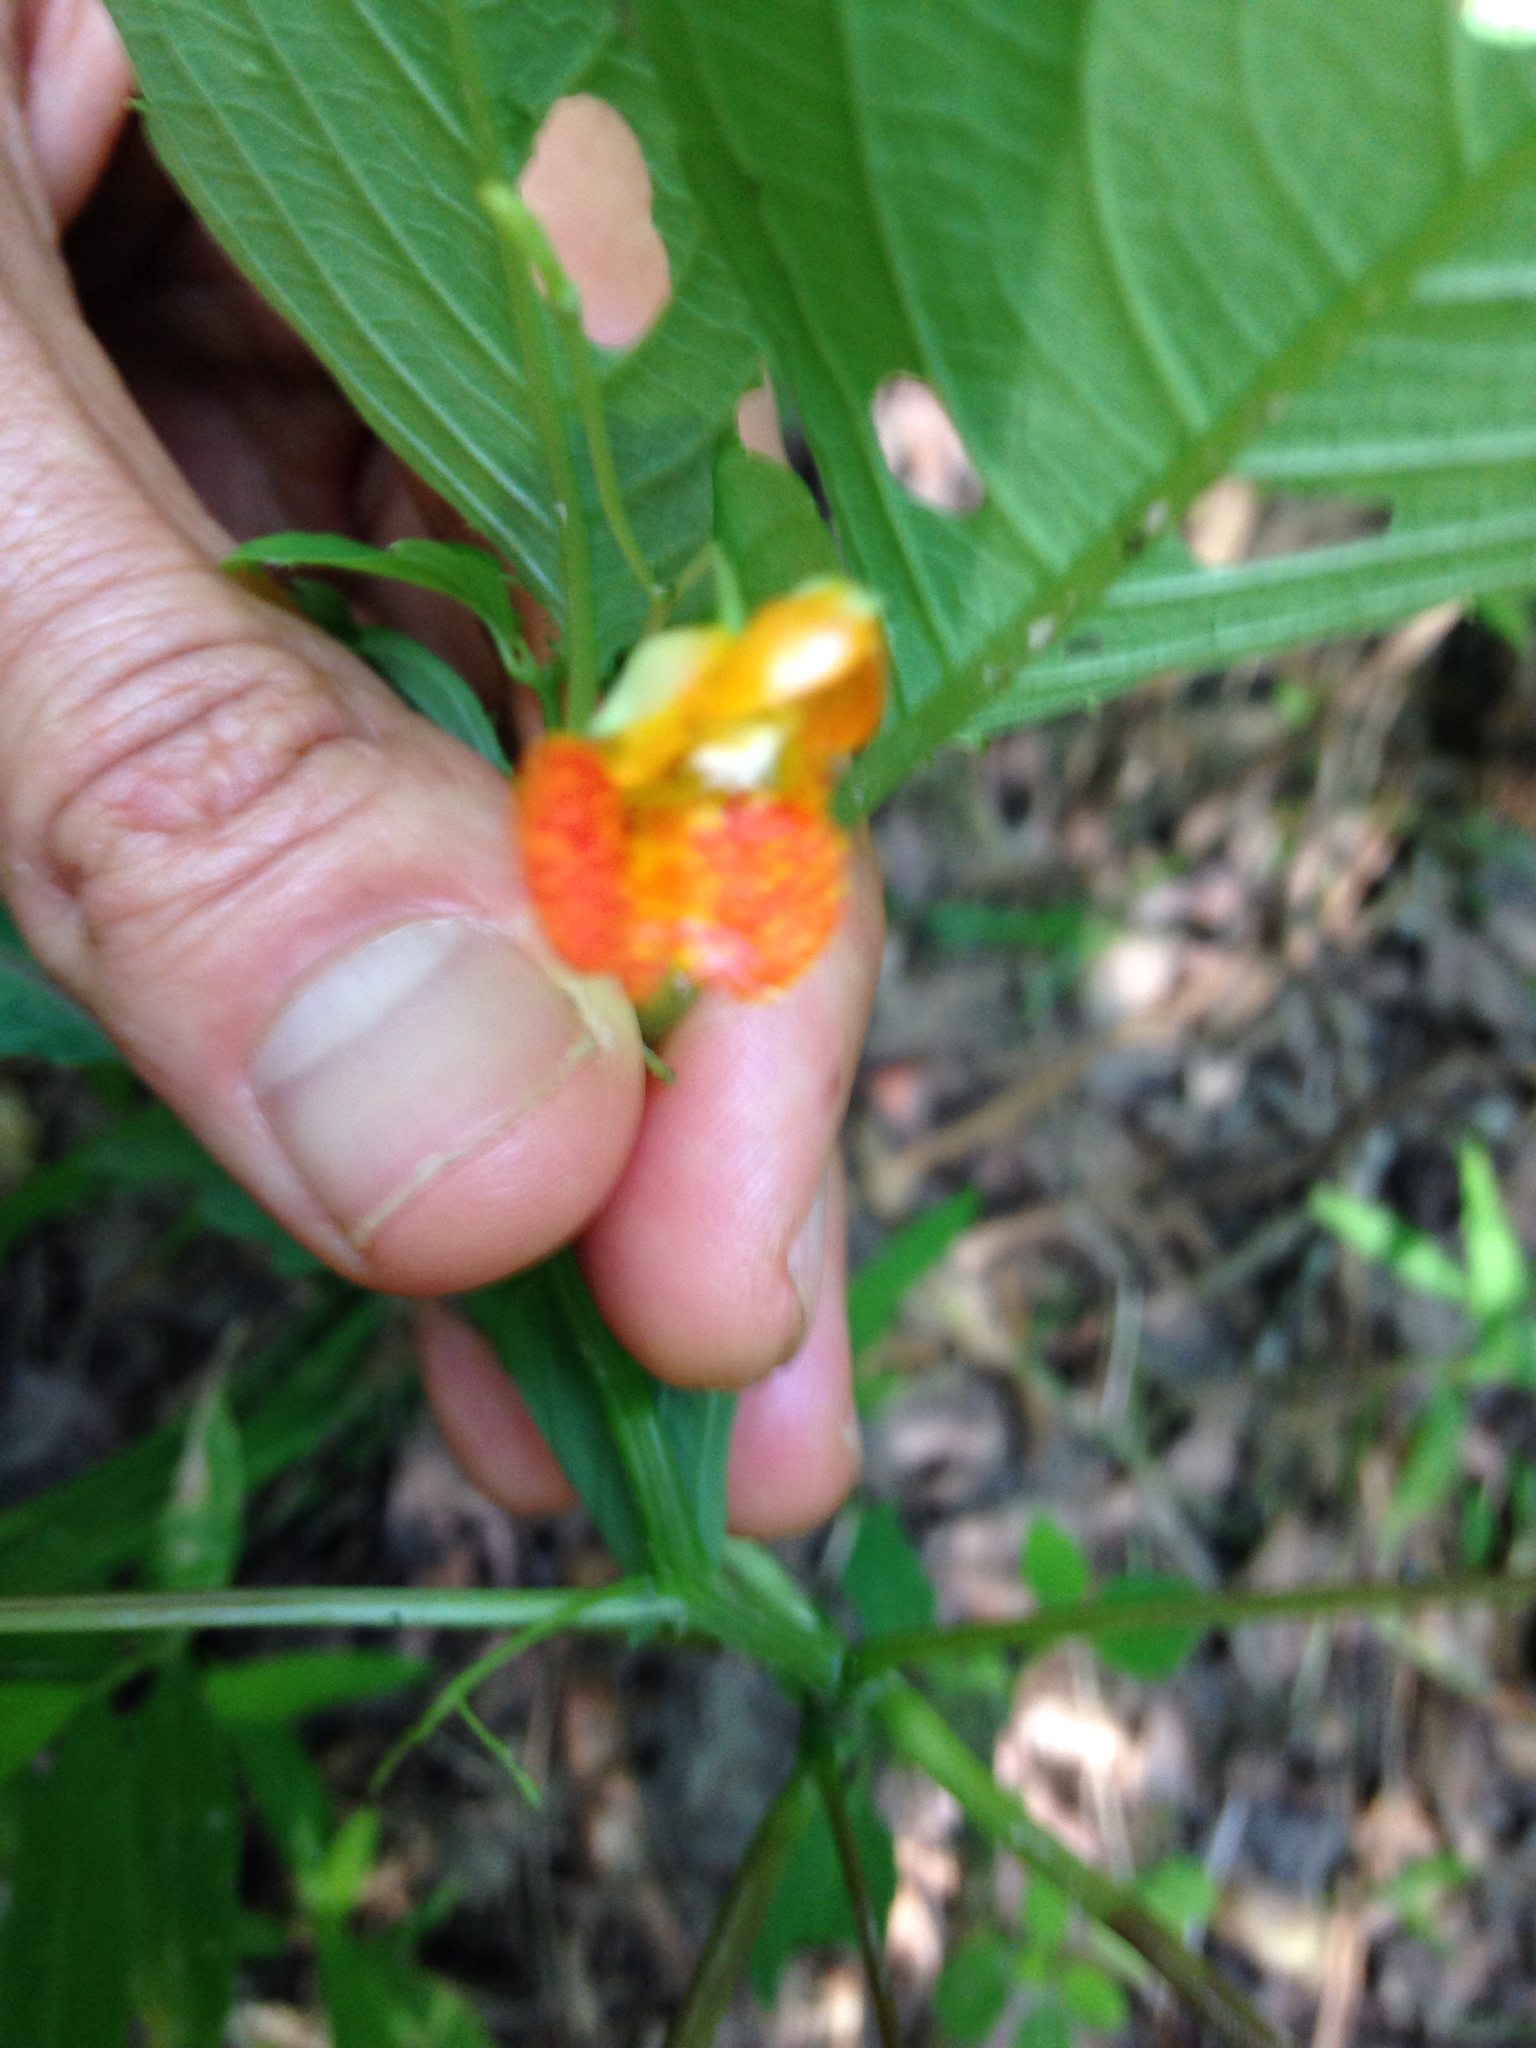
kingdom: Plantae
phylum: Tracheophyta
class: Magnoliopsida
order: Ericales
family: Balsaminaceae
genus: Impatiens
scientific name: Impatiens capensis
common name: Orange balsam
